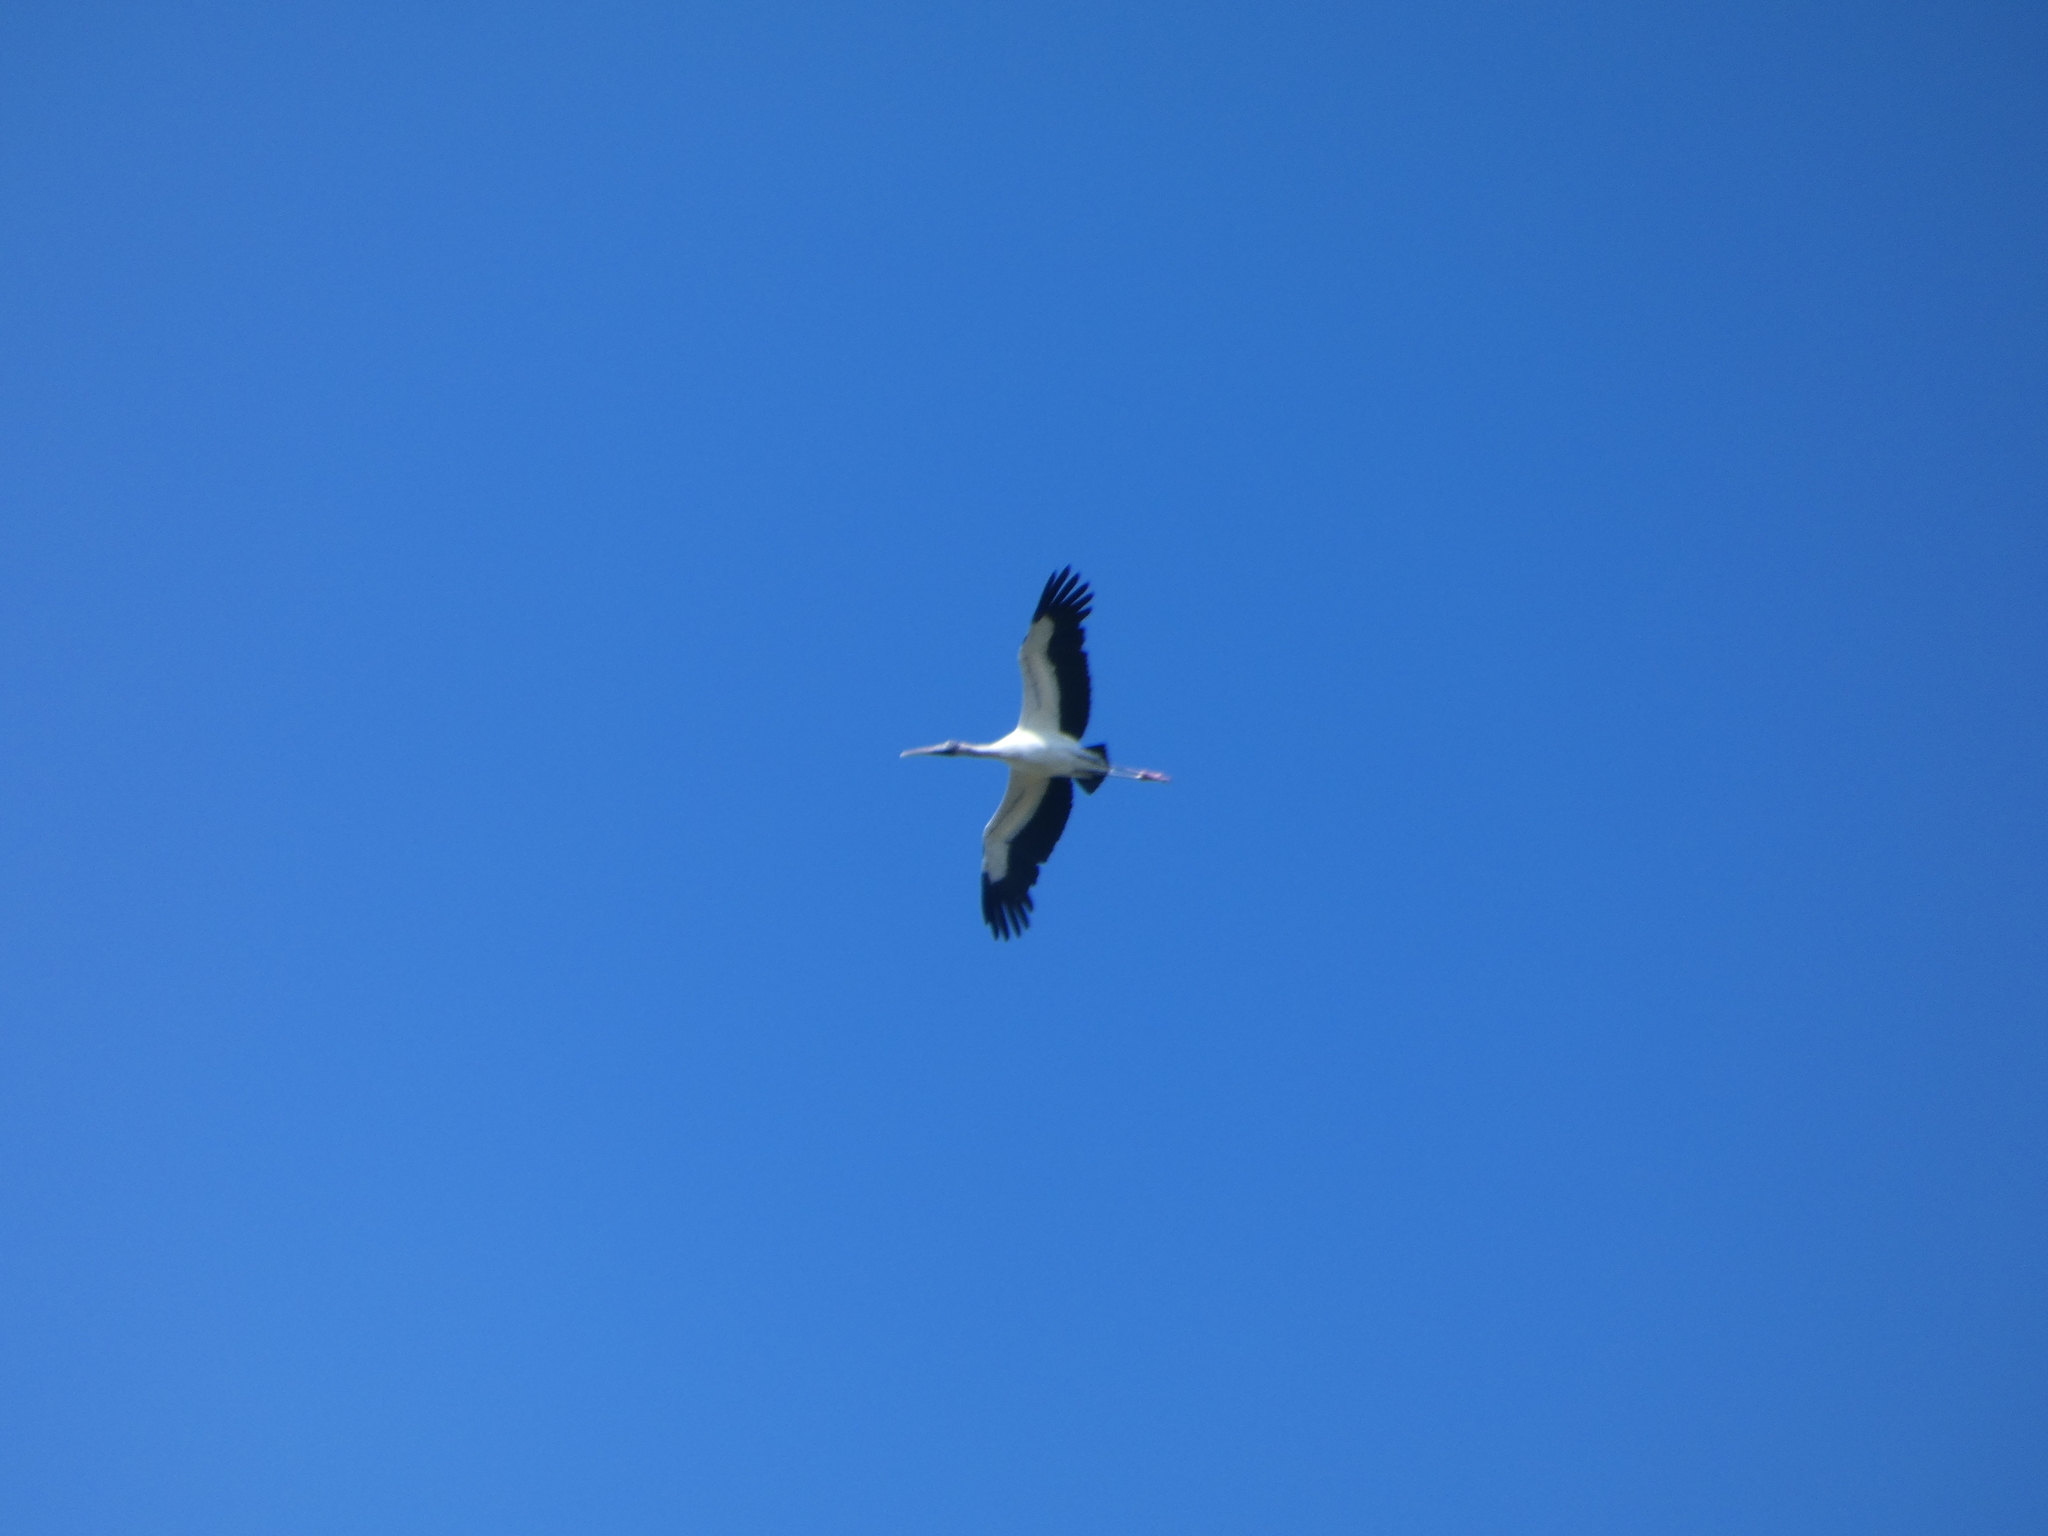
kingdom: Animalia
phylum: Chordata
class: Aves
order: Ciconiiformes
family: Ciconiidae
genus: Mycteria
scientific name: Mycteria americana
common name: Wood stork
